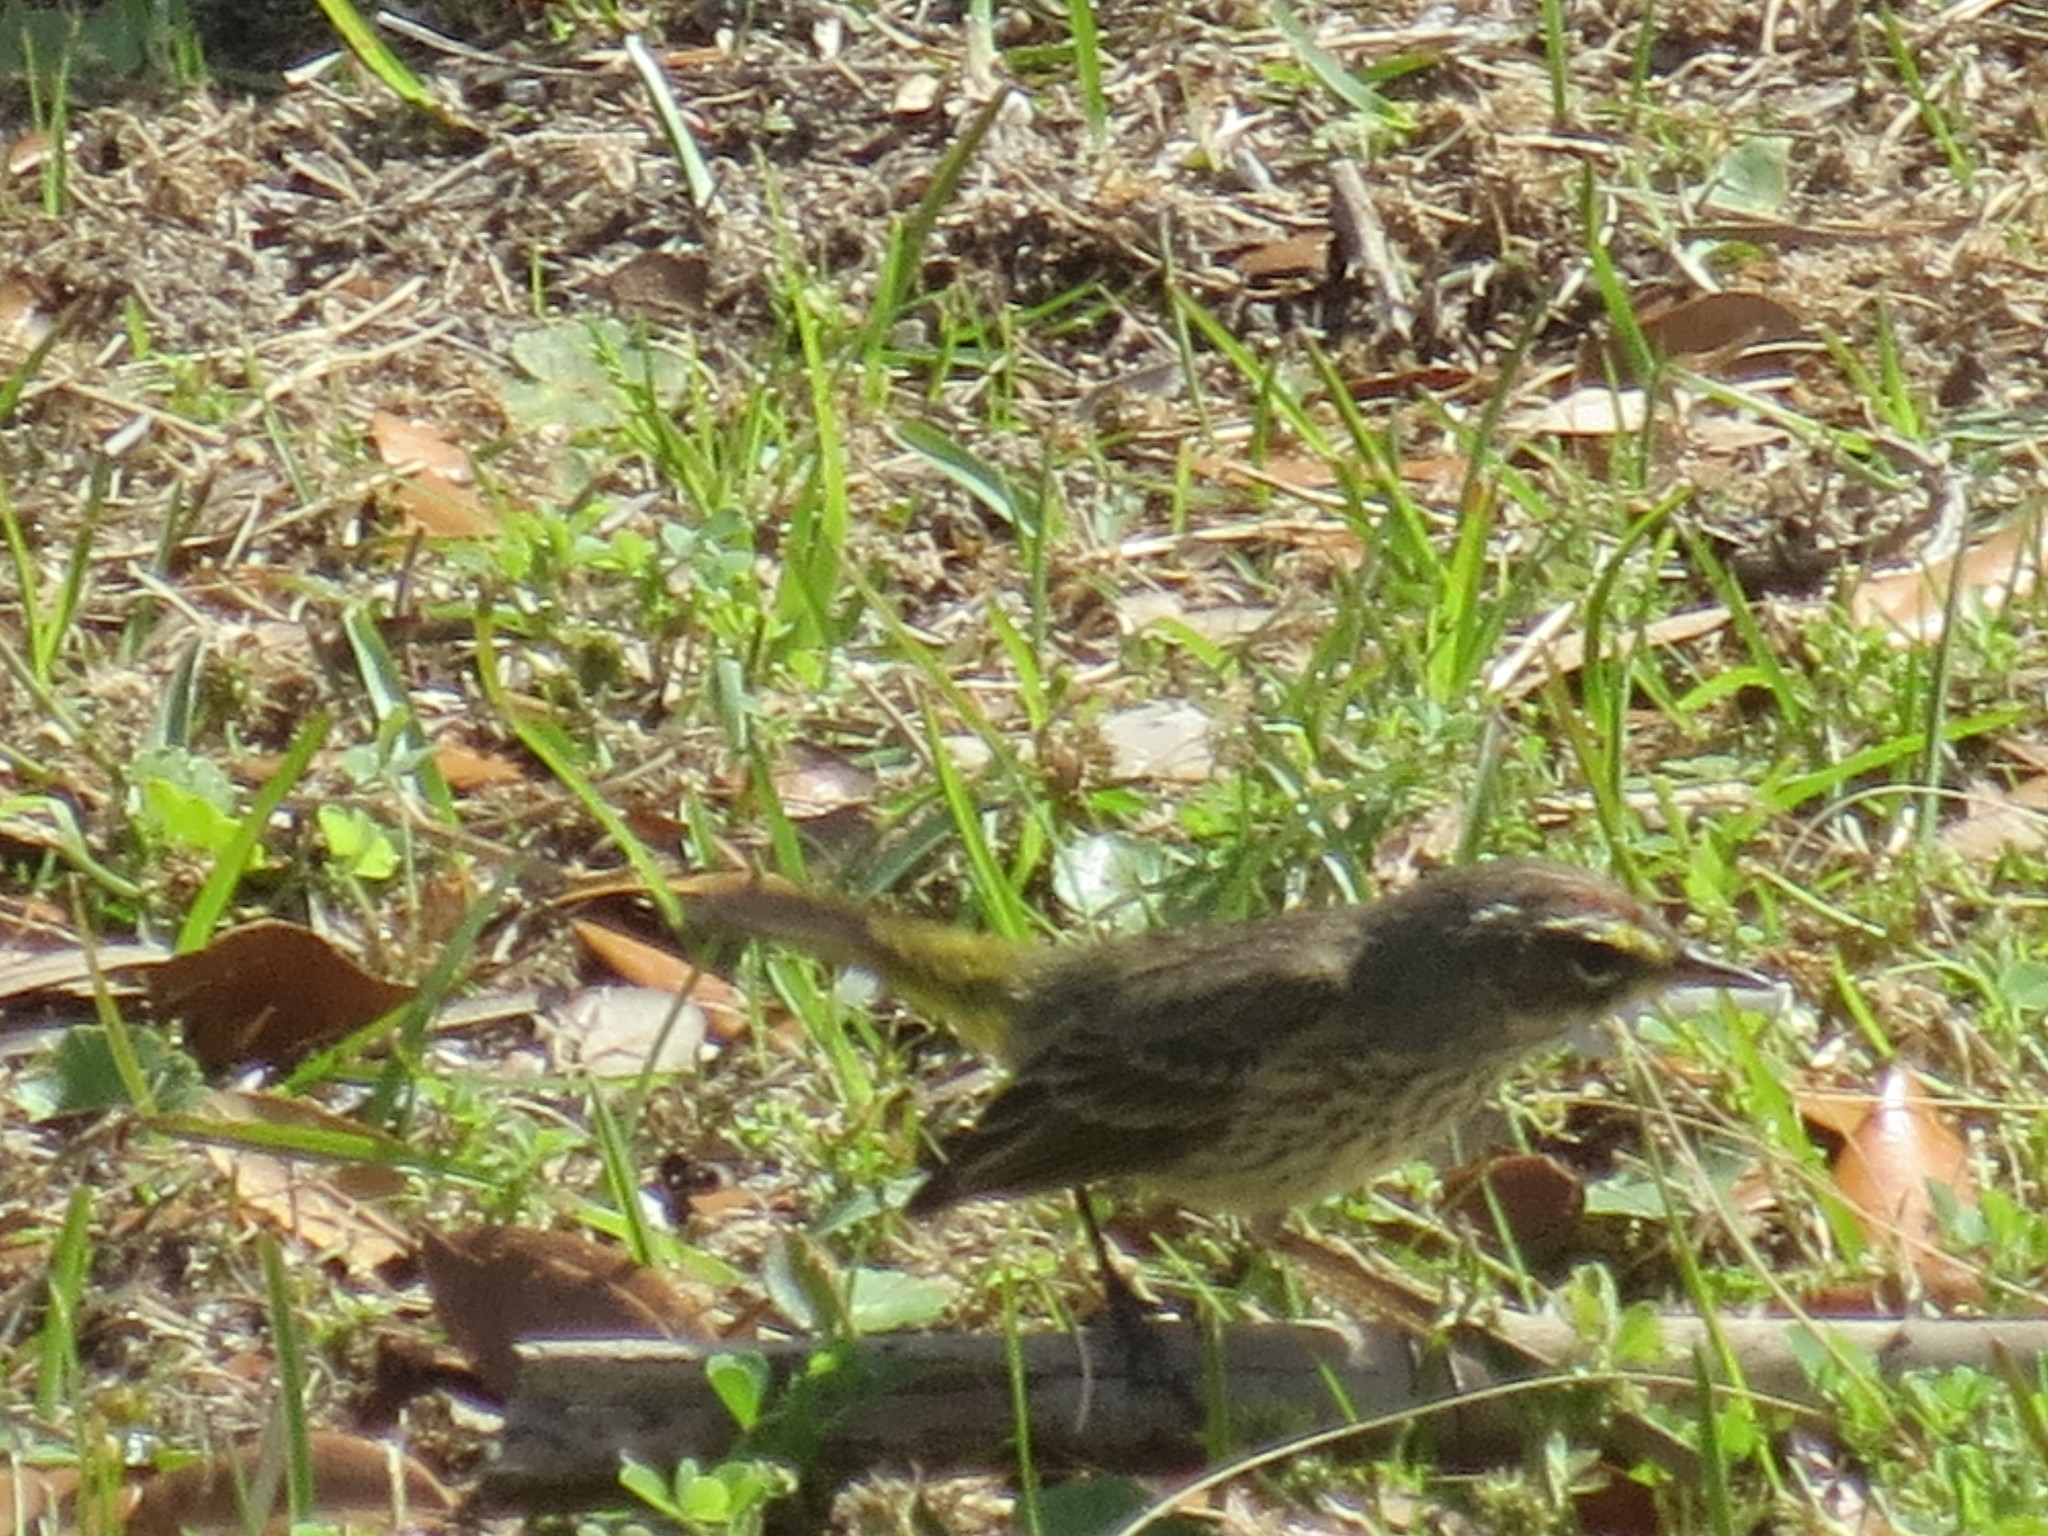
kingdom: Animalia
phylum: Chordata
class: Aves
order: Passeriformes
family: Parulidae
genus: Setophaga
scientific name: Setophaga palmarum
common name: Palm warbler
